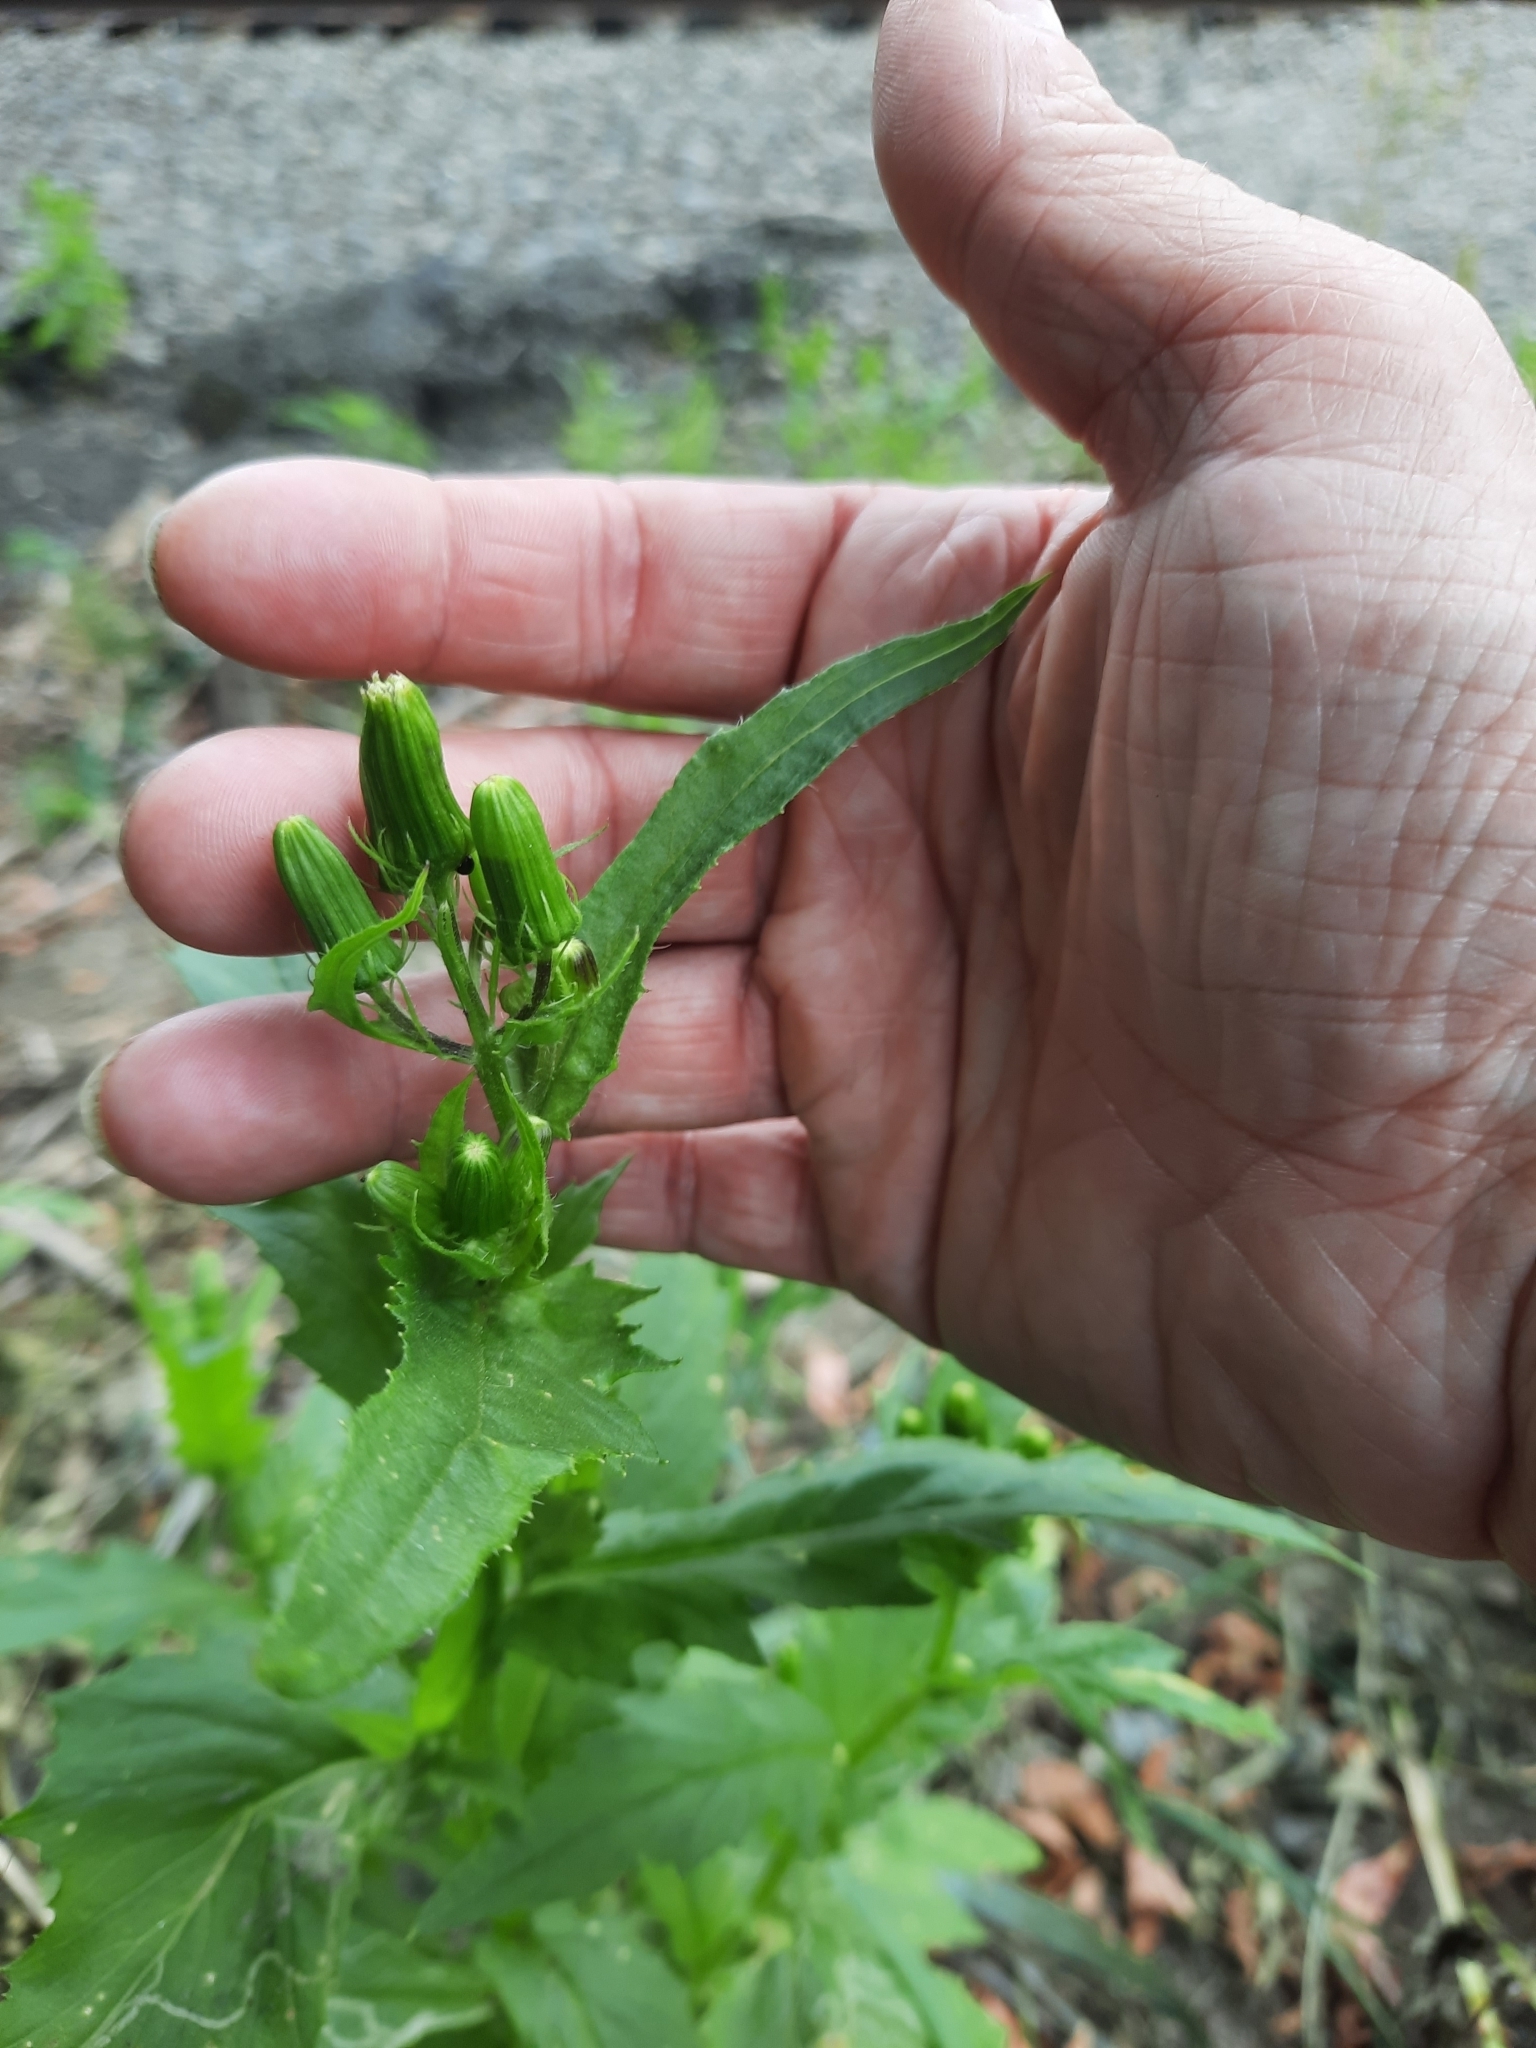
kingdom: Plantae
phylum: Tracheophyta
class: Magnoliopsida
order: Asterales
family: Asteraceae
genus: Erechtites
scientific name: Erechtites hieraciifolius
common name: American burnweed
